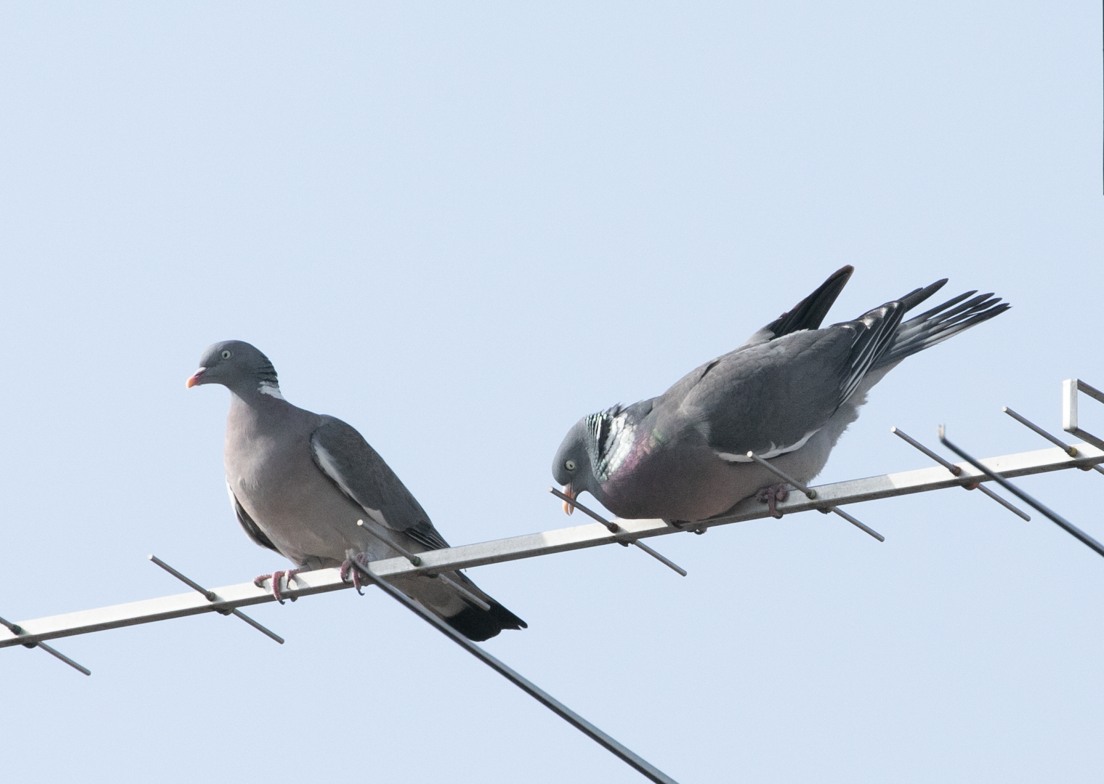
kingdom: Animalia
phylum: Chordata
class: Aves
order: Columbiformes
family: Columbidae
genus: Columba
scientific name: Columba palumbus
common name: Common wood pigeon
